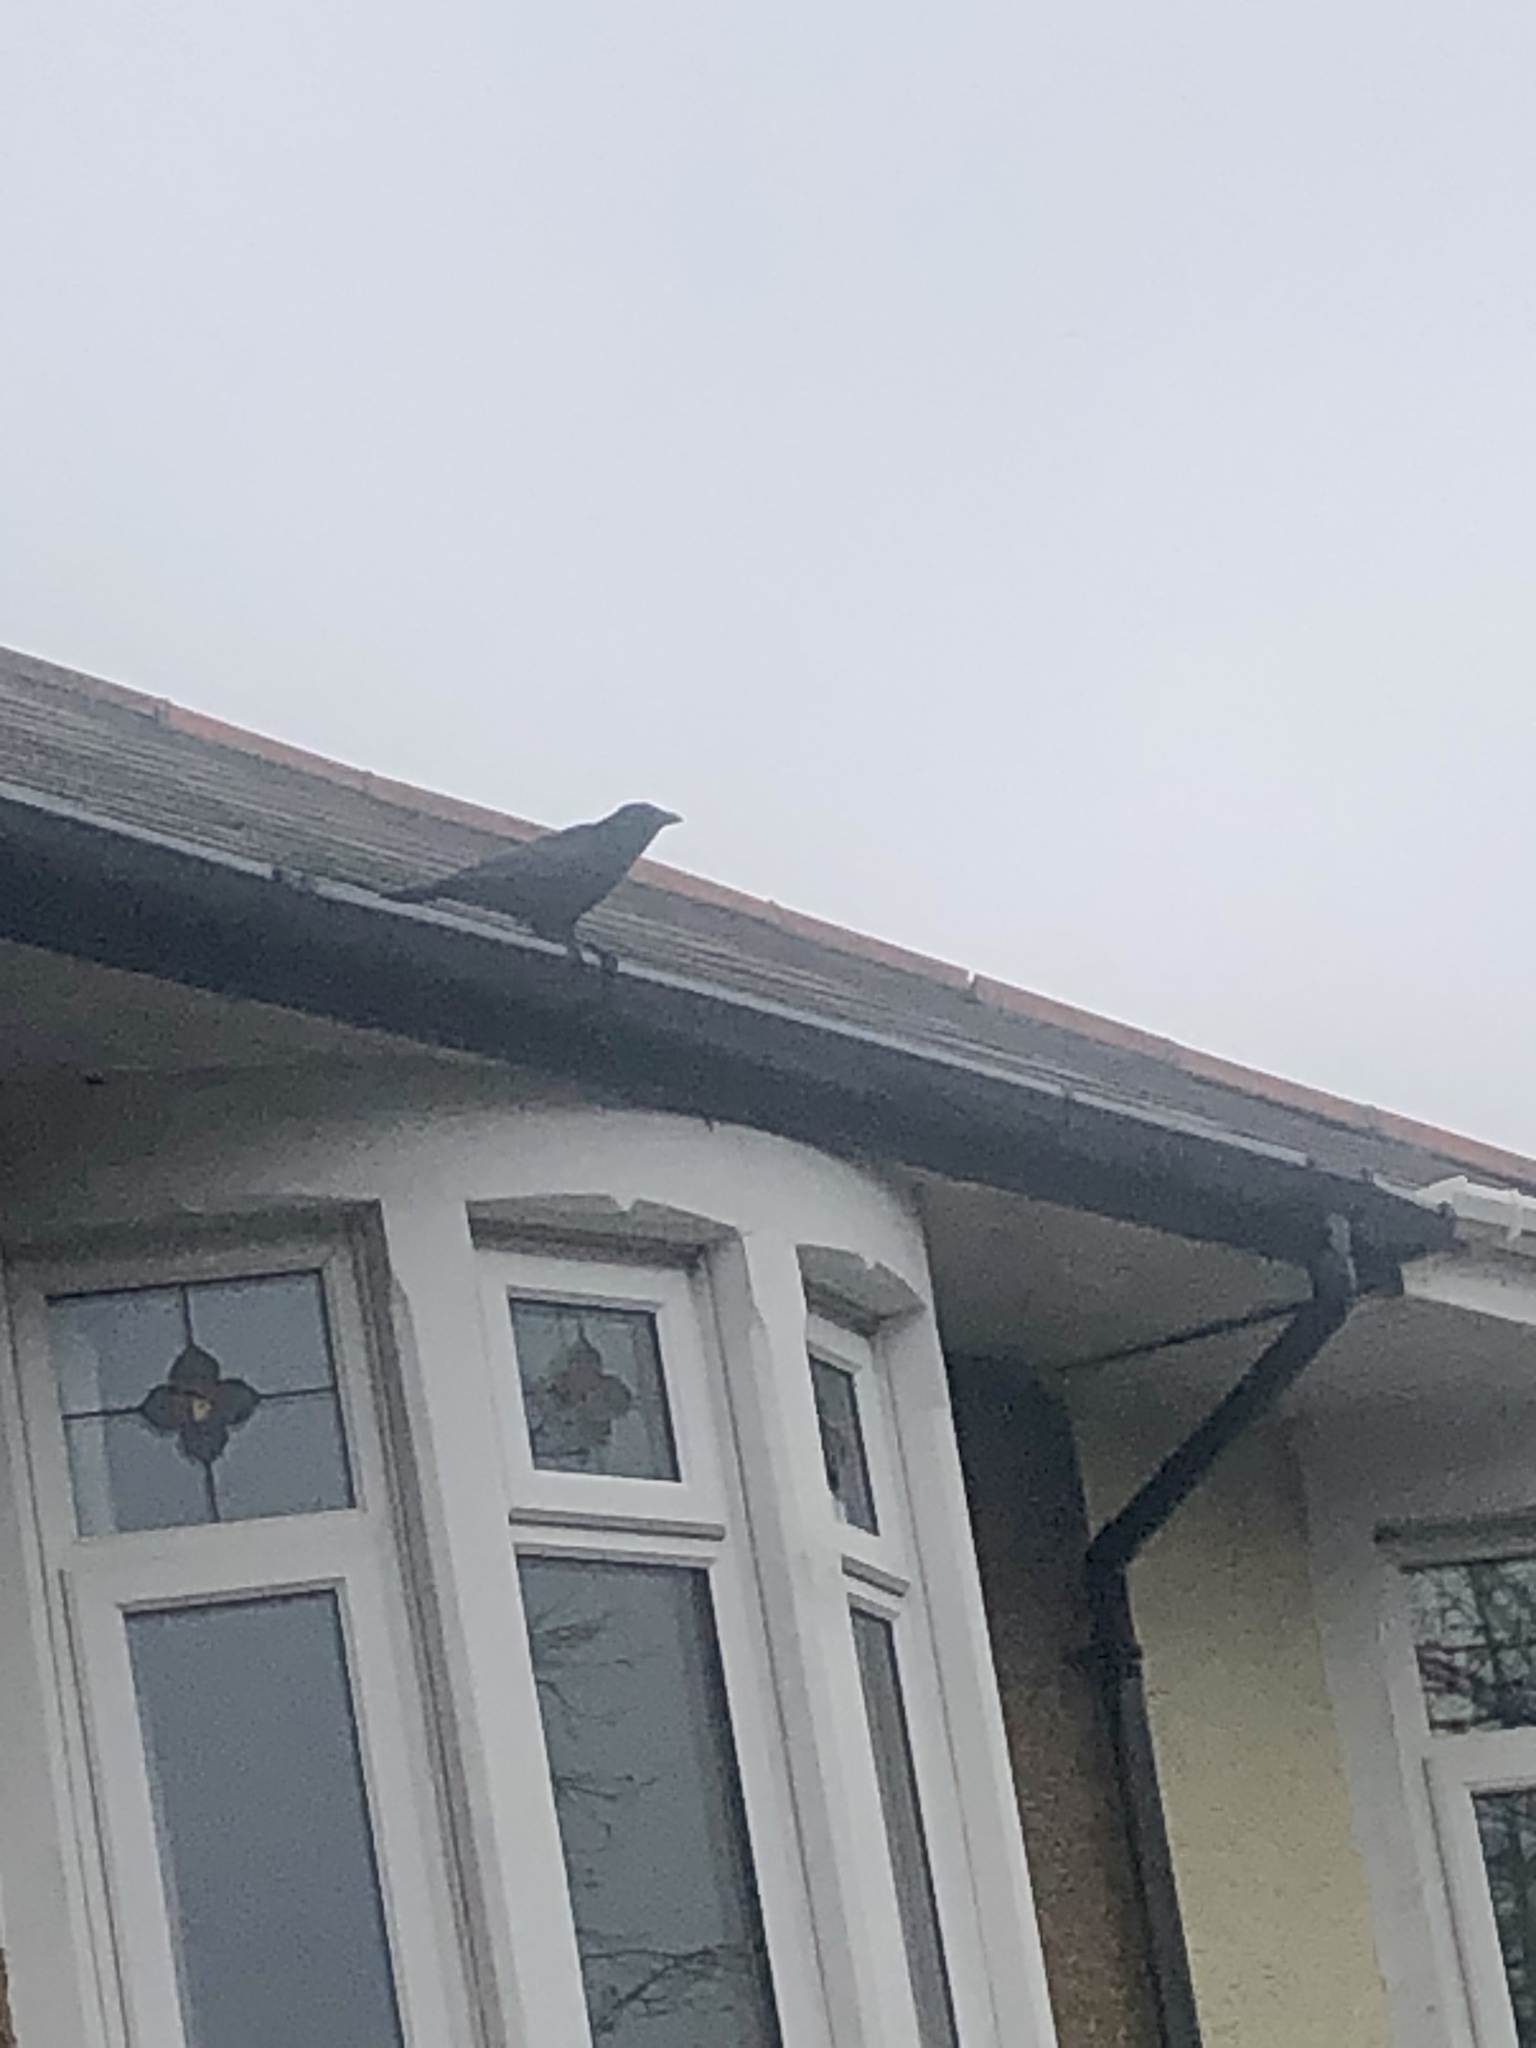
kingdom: Animalia
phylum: Chordata
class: Aves
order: Passeriformes
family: Corvidae
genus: Corvus
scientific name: Corvus corone
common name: Carrion crow
